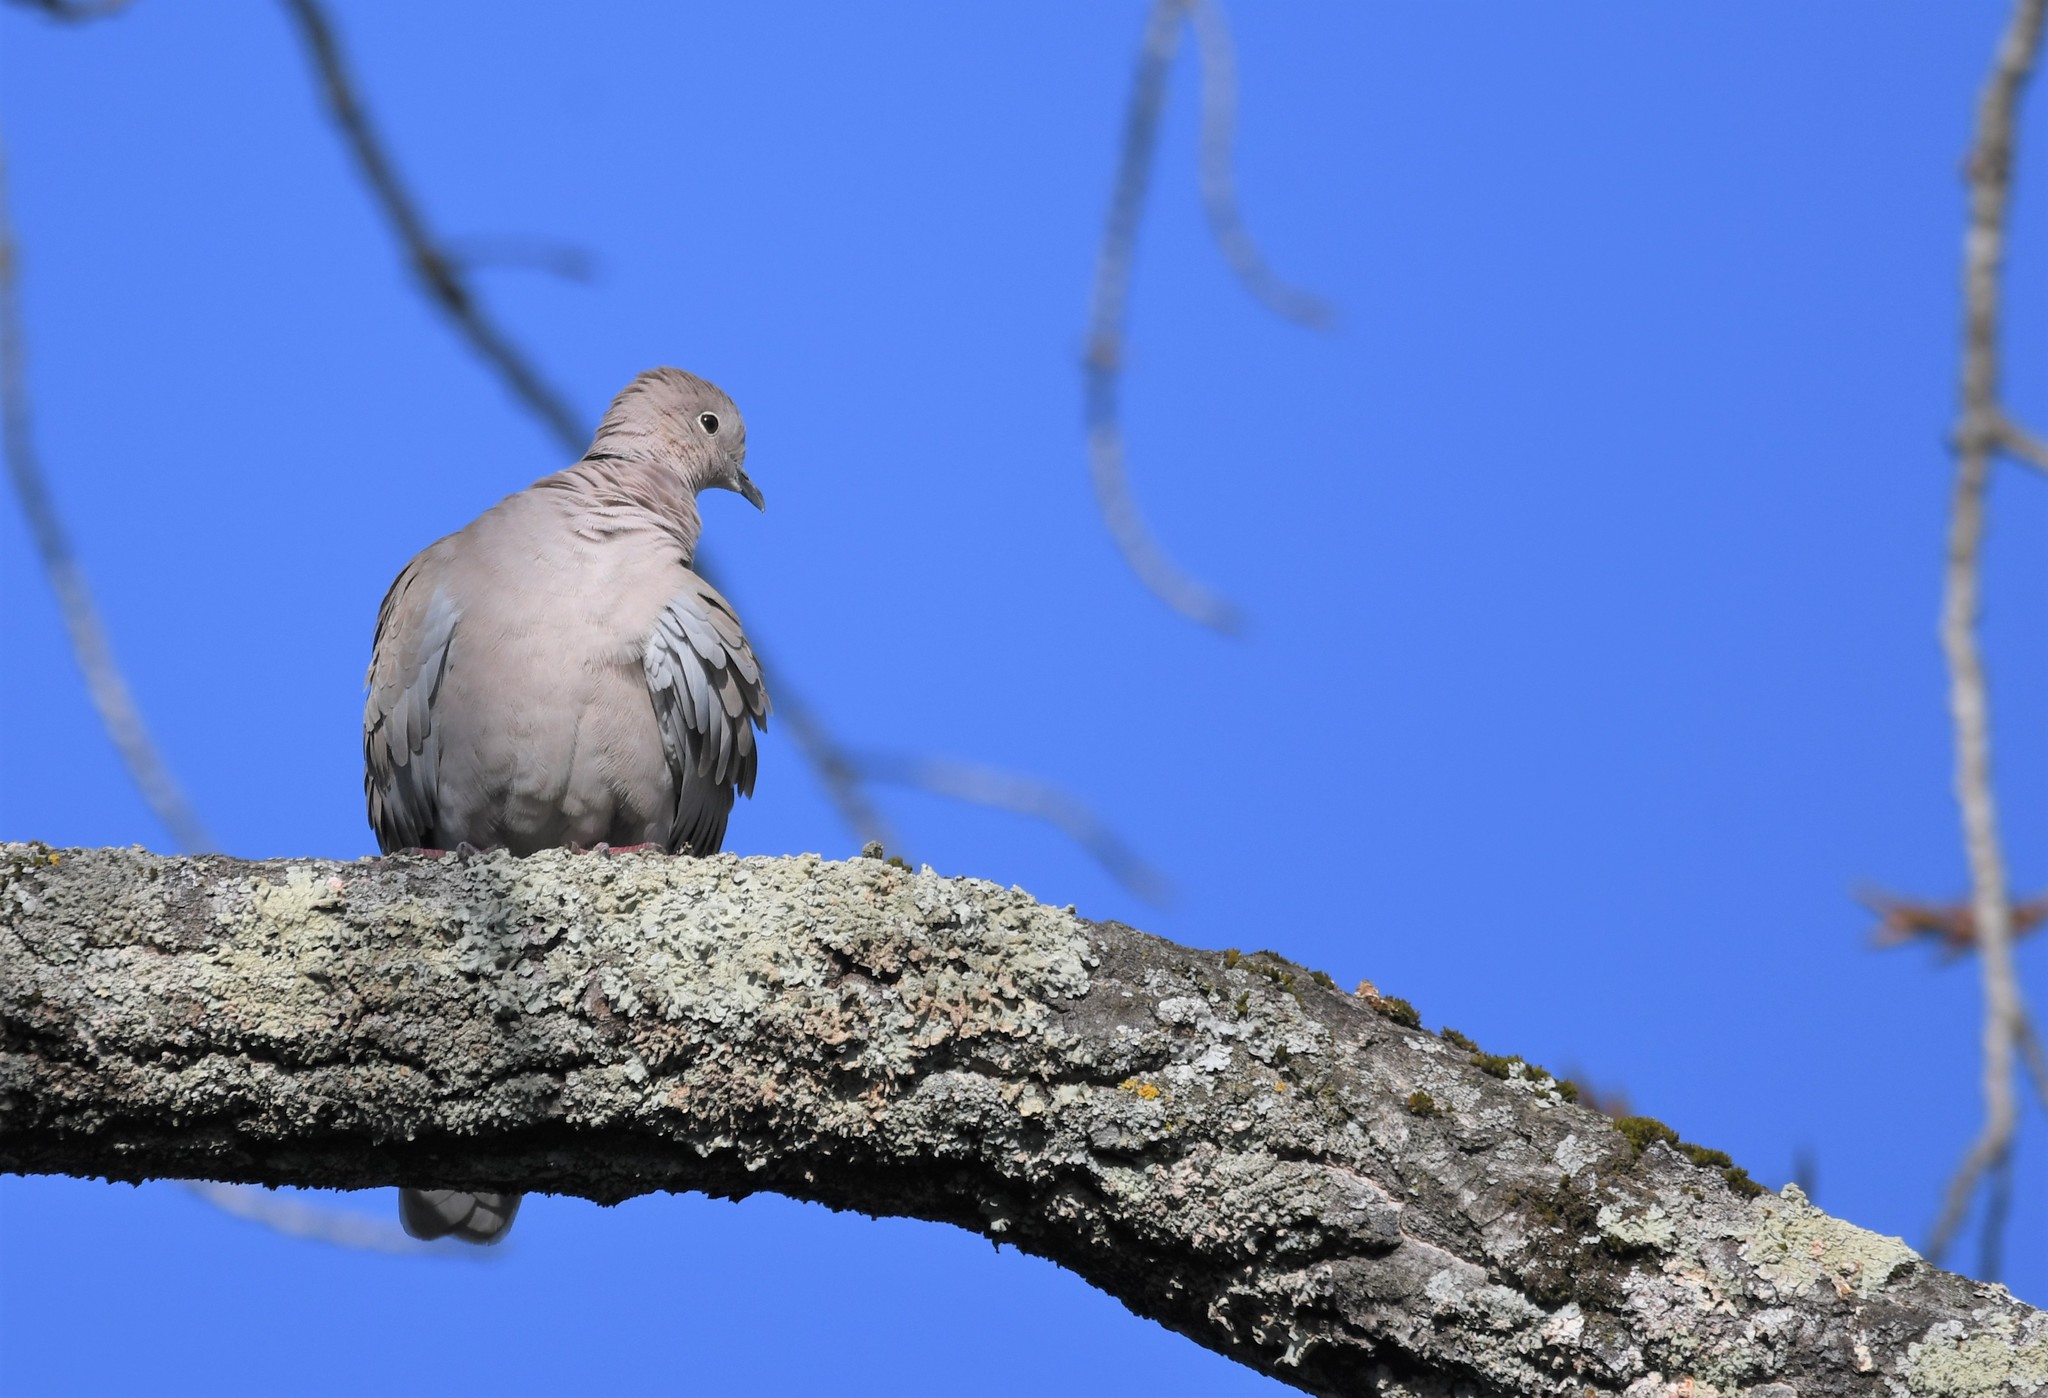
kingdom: Animalia
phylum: Chordata
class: Aves
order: Columbiformes
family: Columbidae
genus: Streptopelia
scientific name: Streptopelia decaocto
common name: Eurasian collared dove
